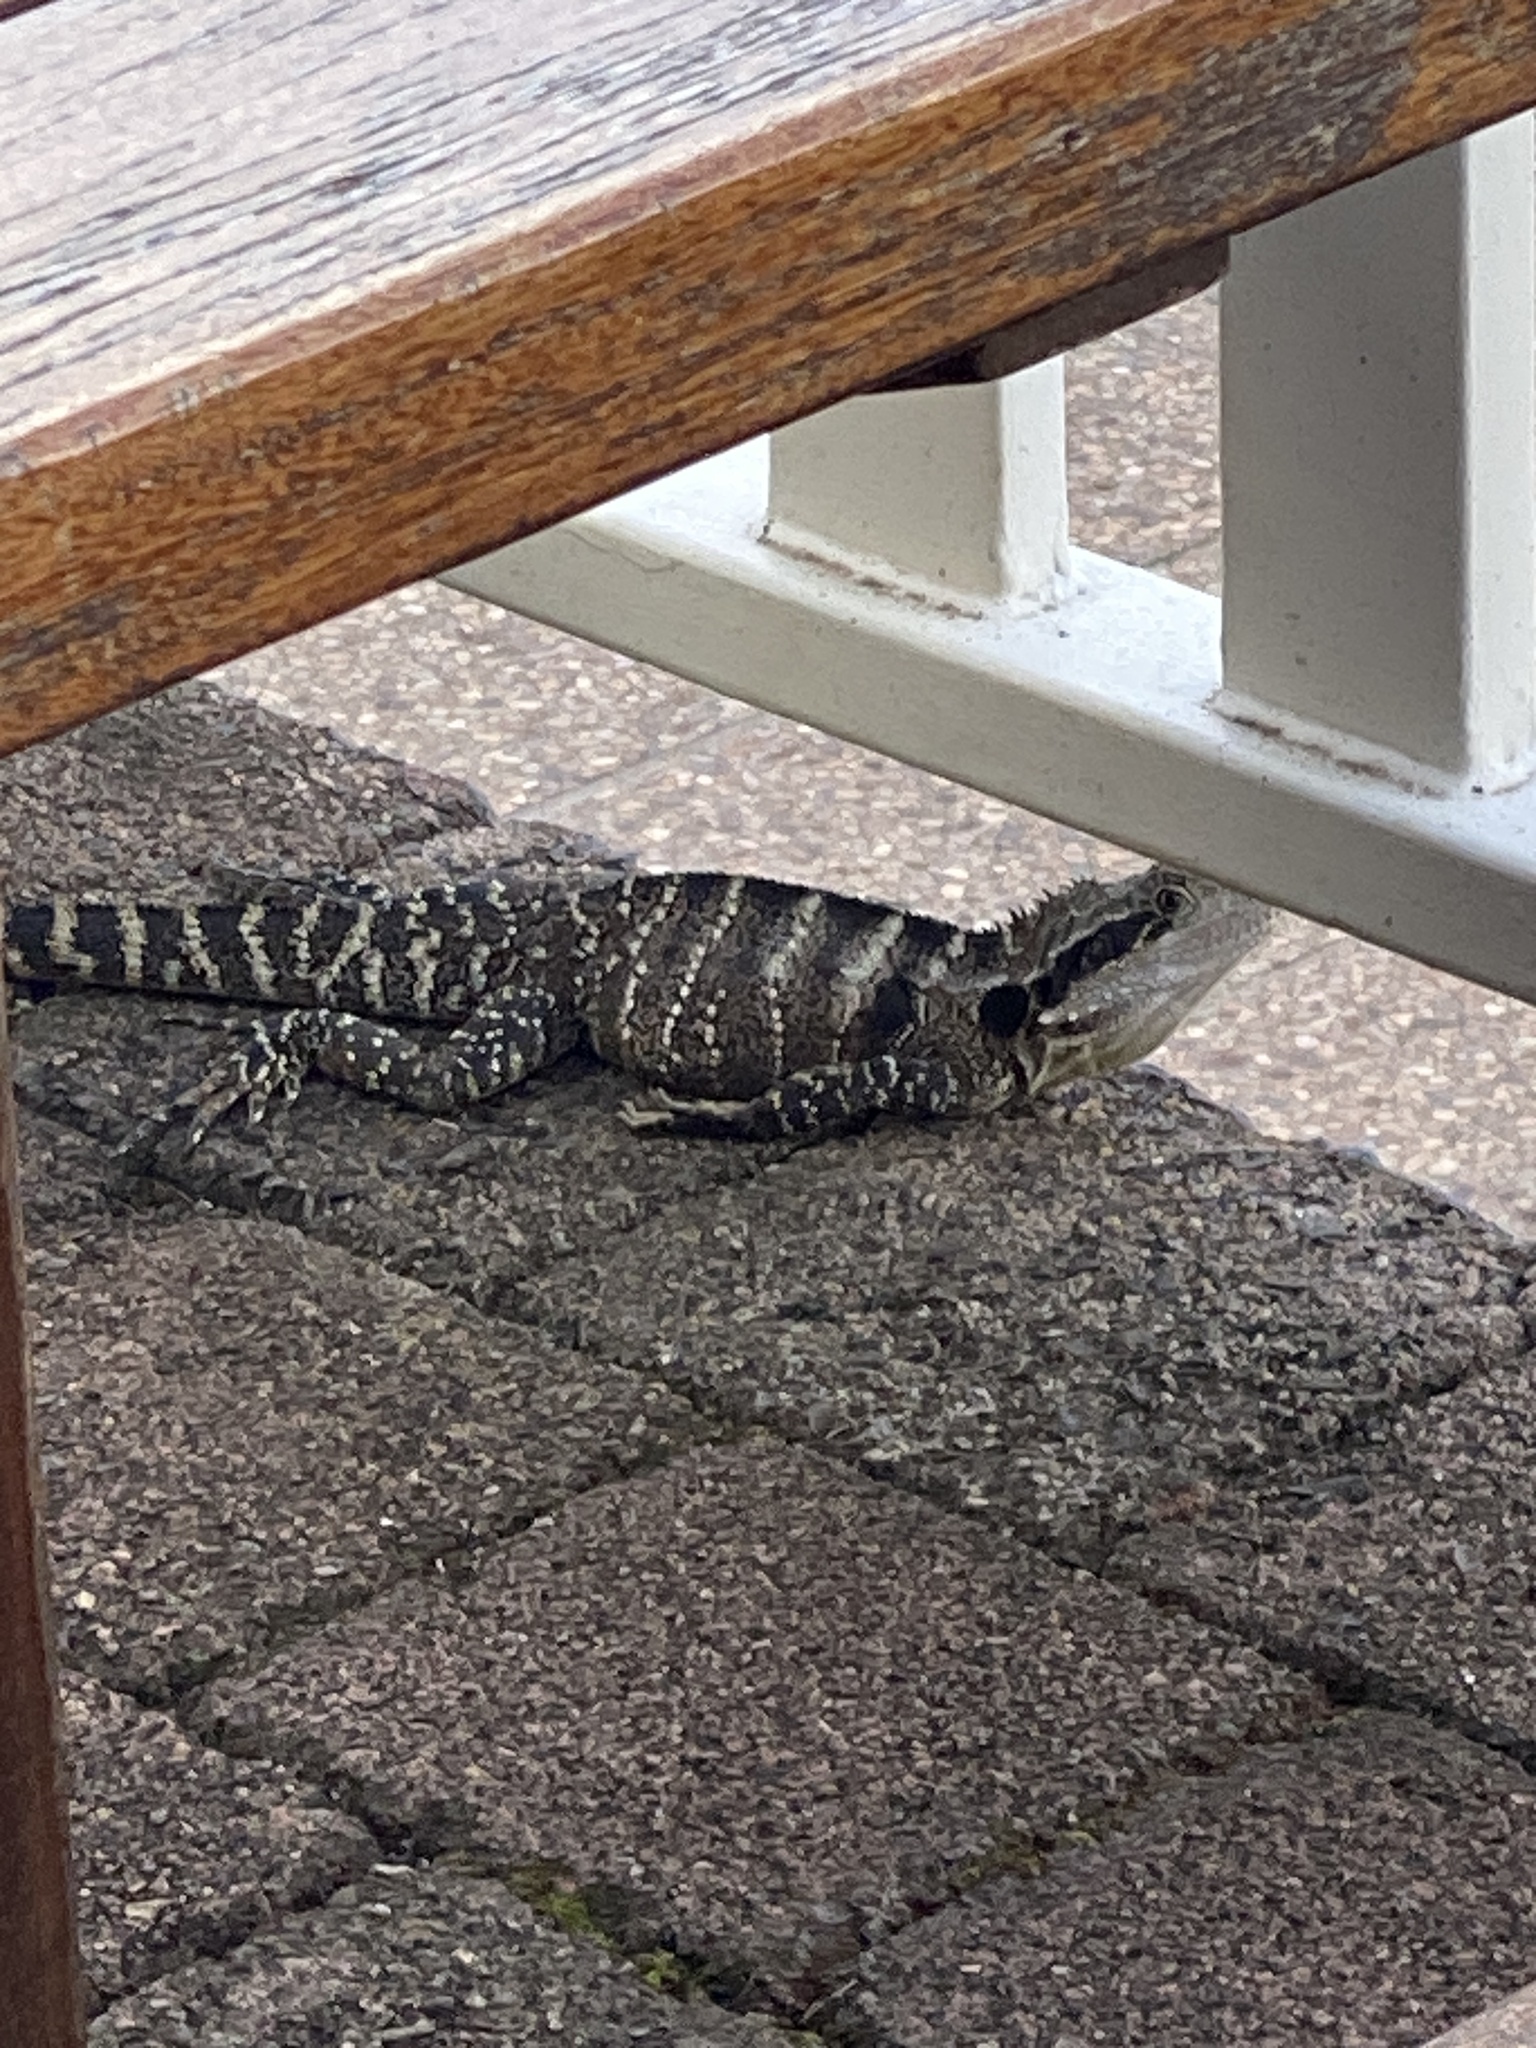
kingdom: Animalia
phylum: Chordata
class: Squamata
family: Agamidae
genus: Intellagama
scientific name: Intellagama lesueurii
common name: Eastern water dragon
